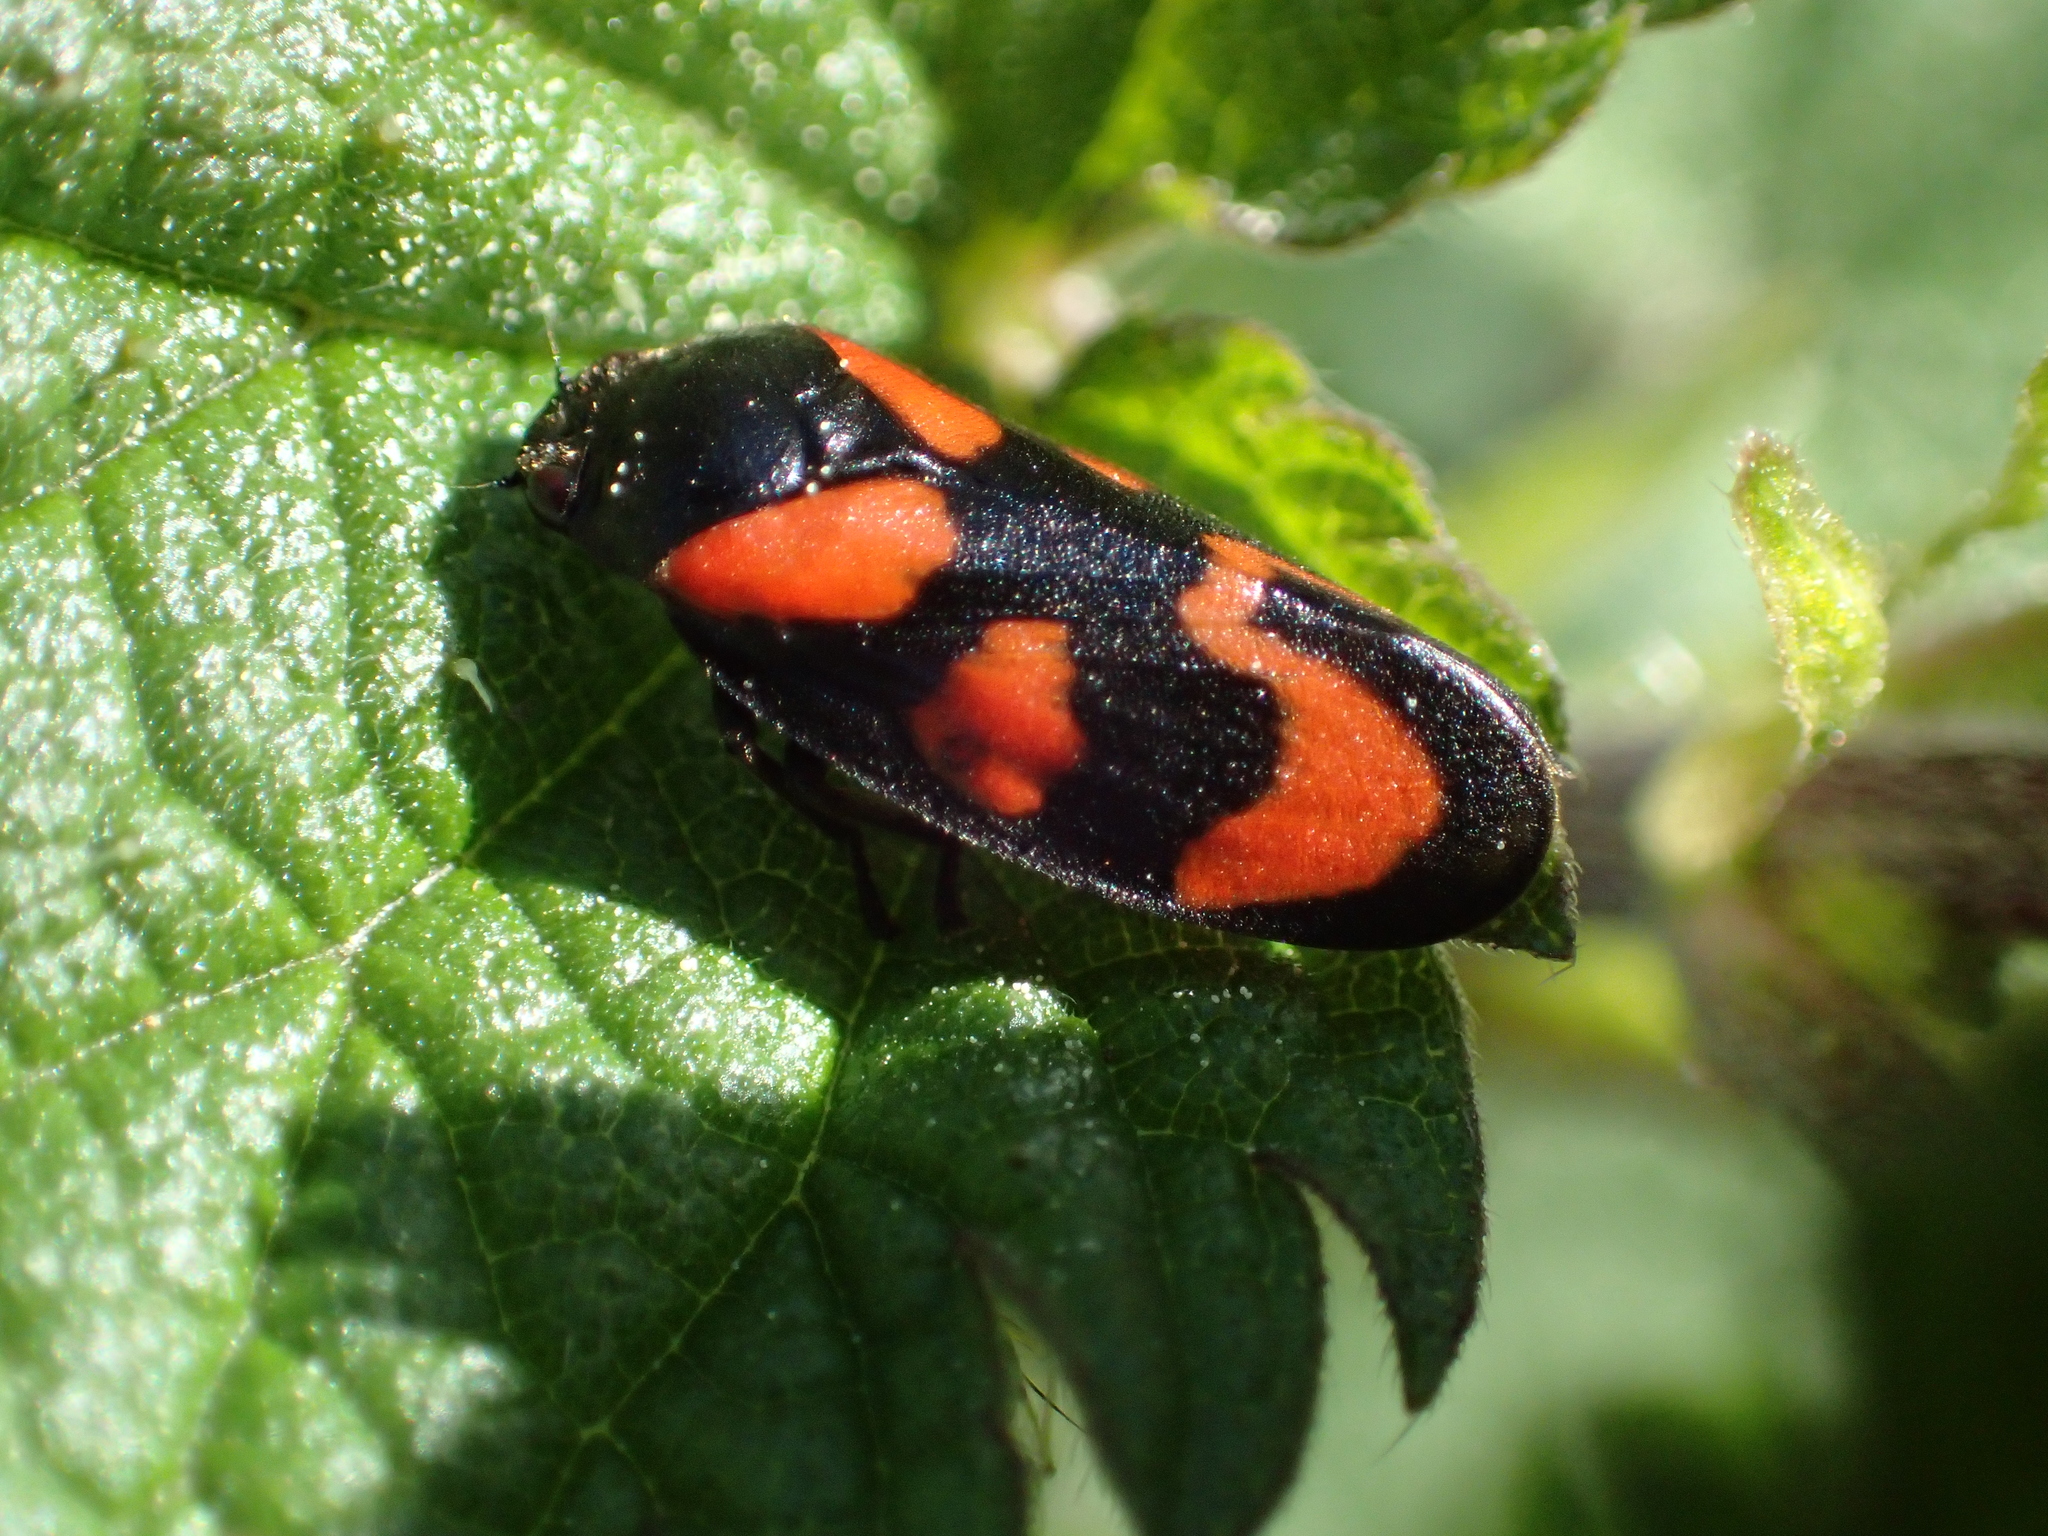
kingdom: Animalia
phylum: Arthropoda
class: Insecta
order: Hemiptera
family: Cercopidae
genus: Cercopis
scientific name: Cercopis vulnerata
